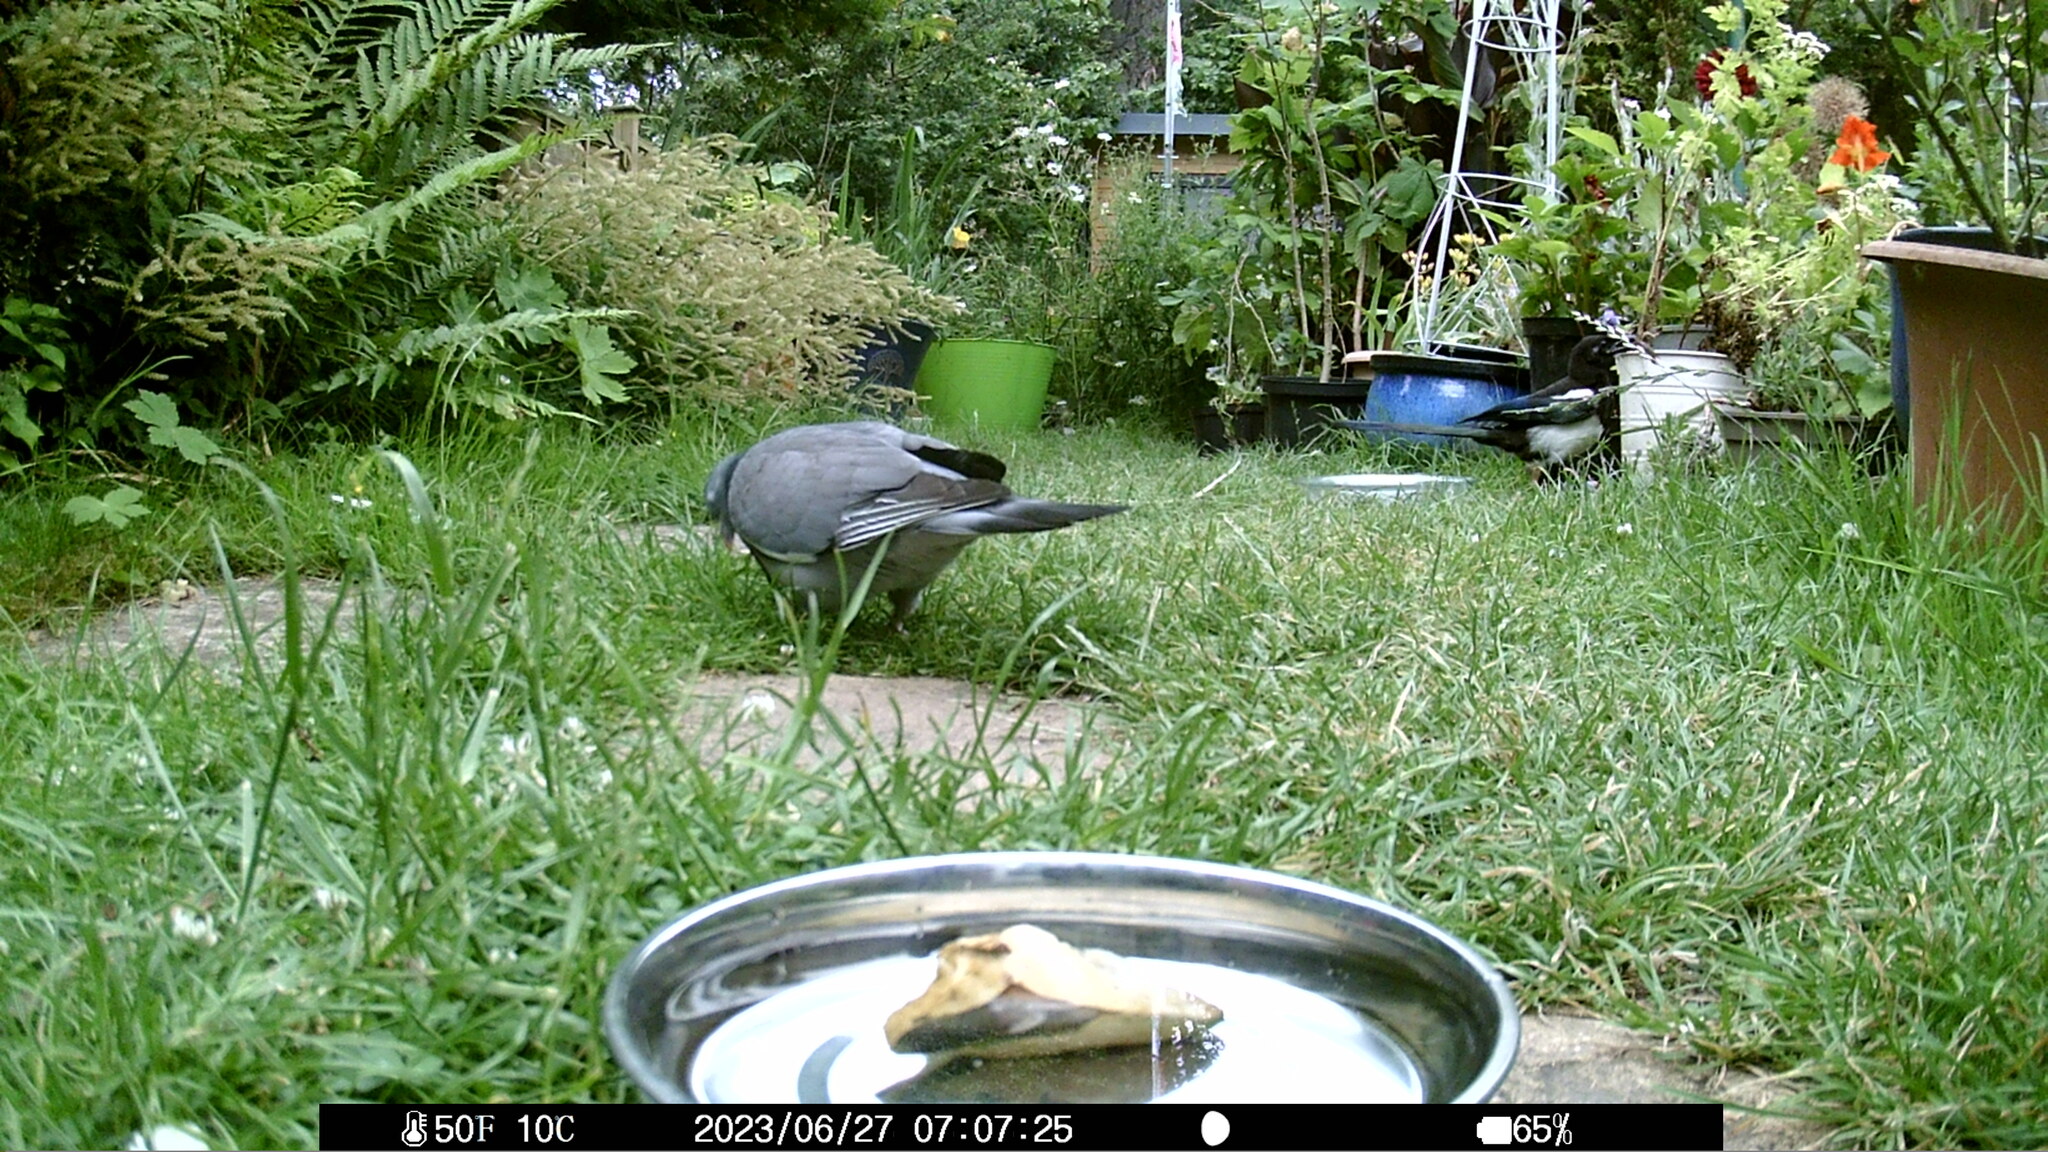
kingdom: Animalia
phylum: Chordata
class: Aves
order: Passeriformes
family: Corvidae
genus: Pica
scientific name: Pica pica
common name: Eurasian magpie
